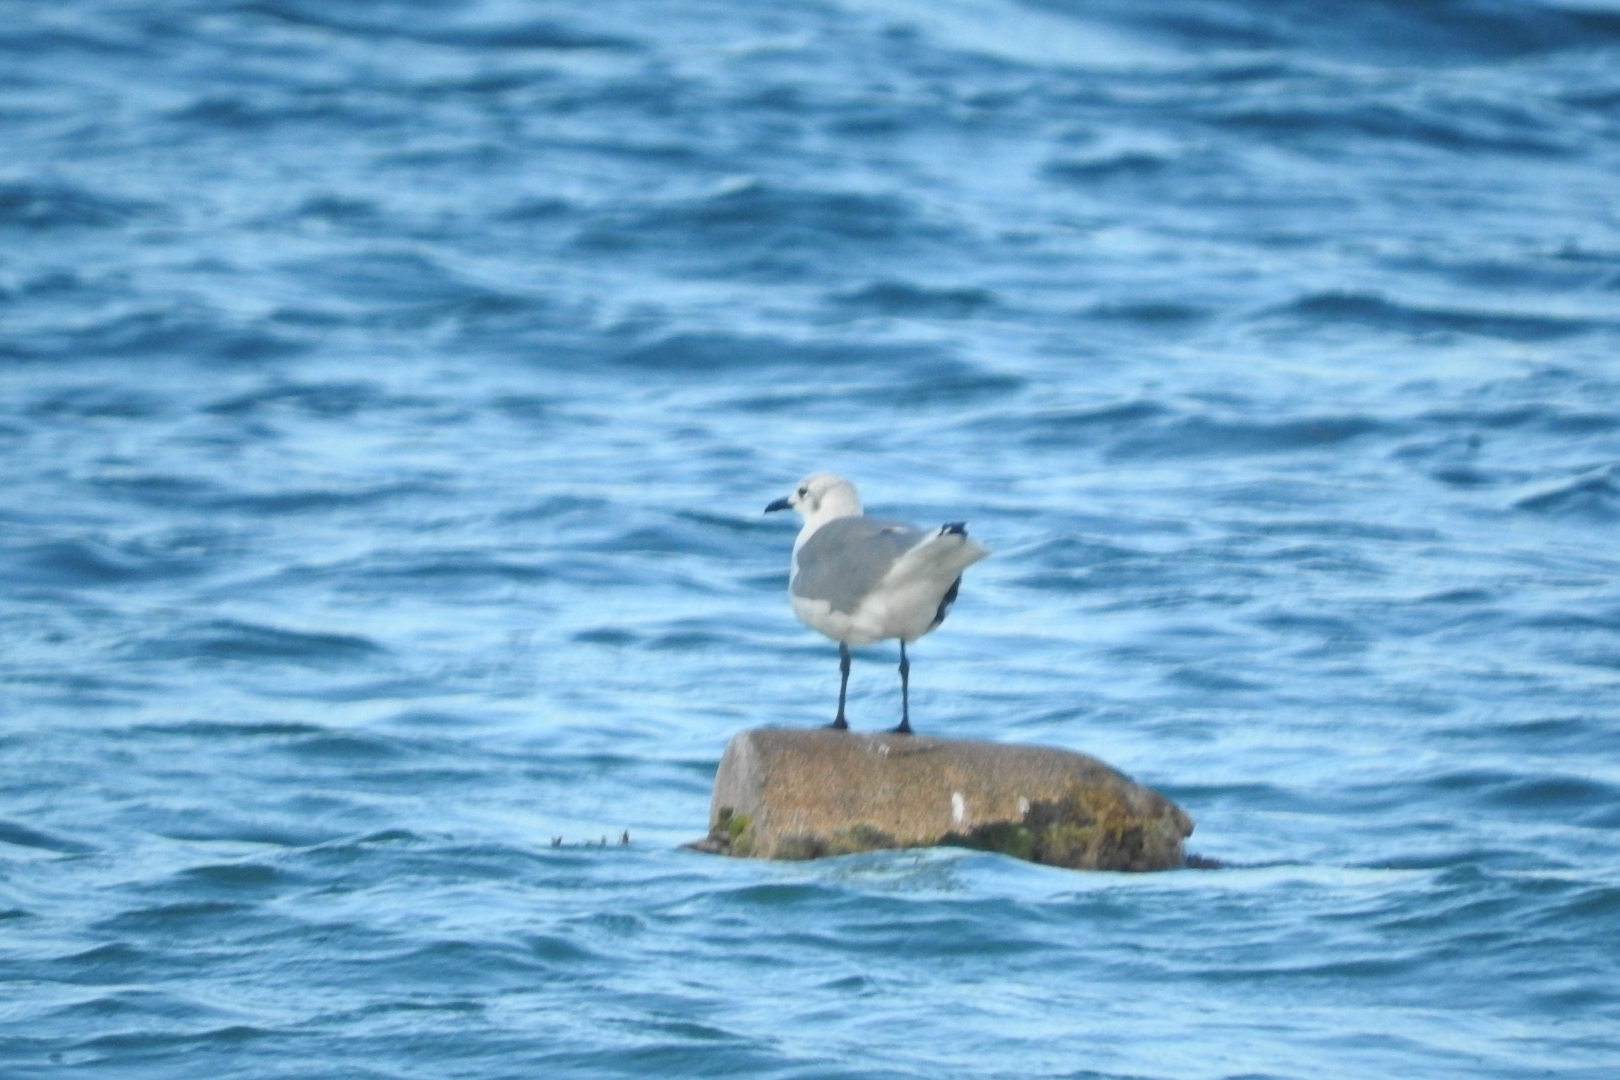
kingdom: Animalia
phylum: Chordata
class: Aves
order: Charadriiformes
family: Laridae
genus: Leucophaeus
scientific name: Leucophaeus atricilla
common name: Laughing gull
